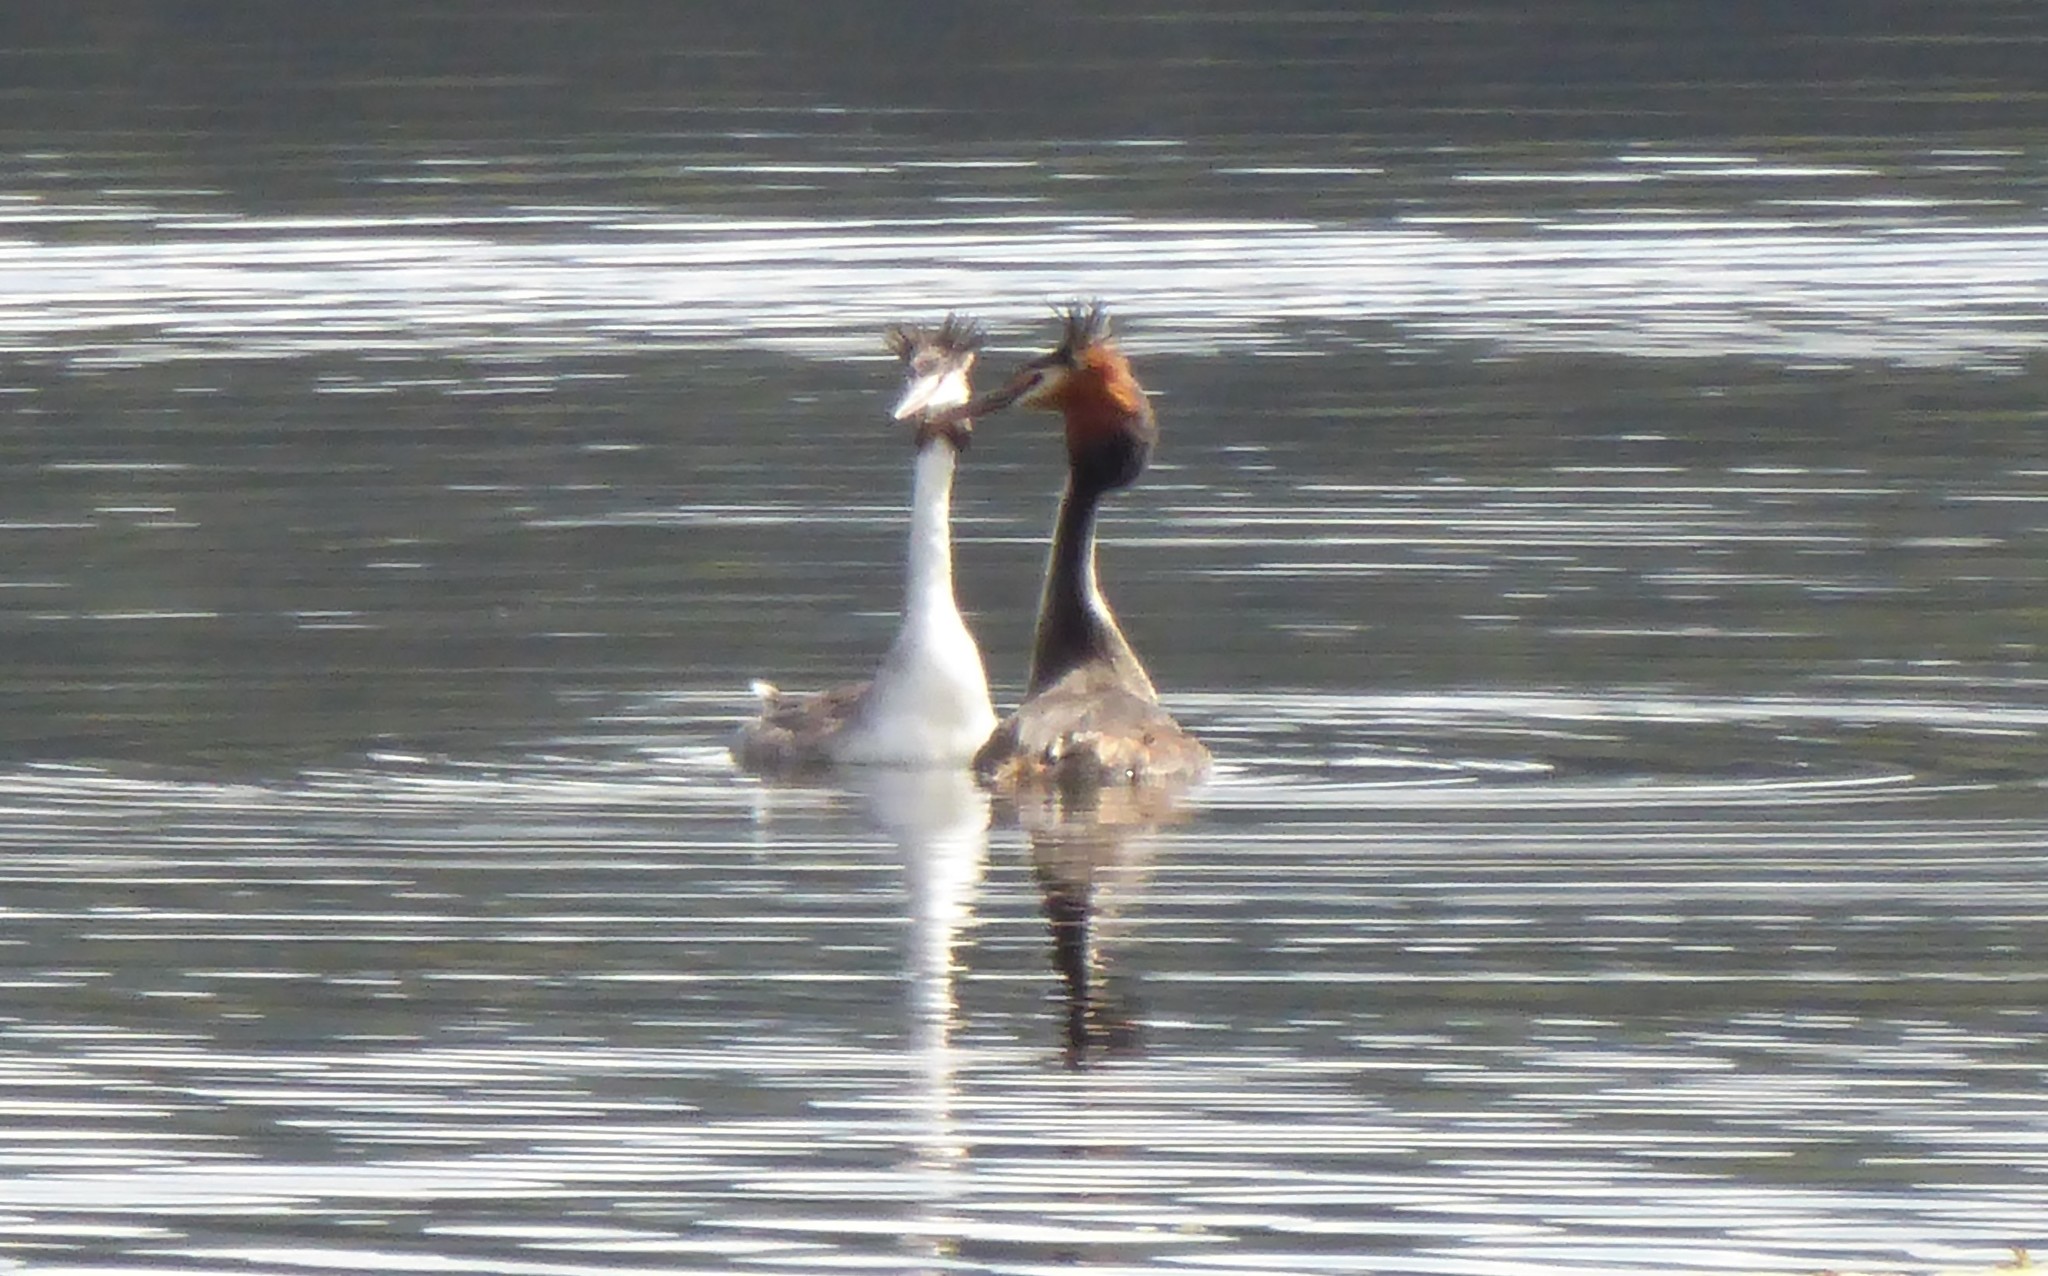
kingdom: Animalia
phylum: Chordata
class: Aves
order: Podicipediformes
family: Podicipedidae
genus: Podiceps
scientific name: Podiceps cristatus
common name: Great crested grebe
